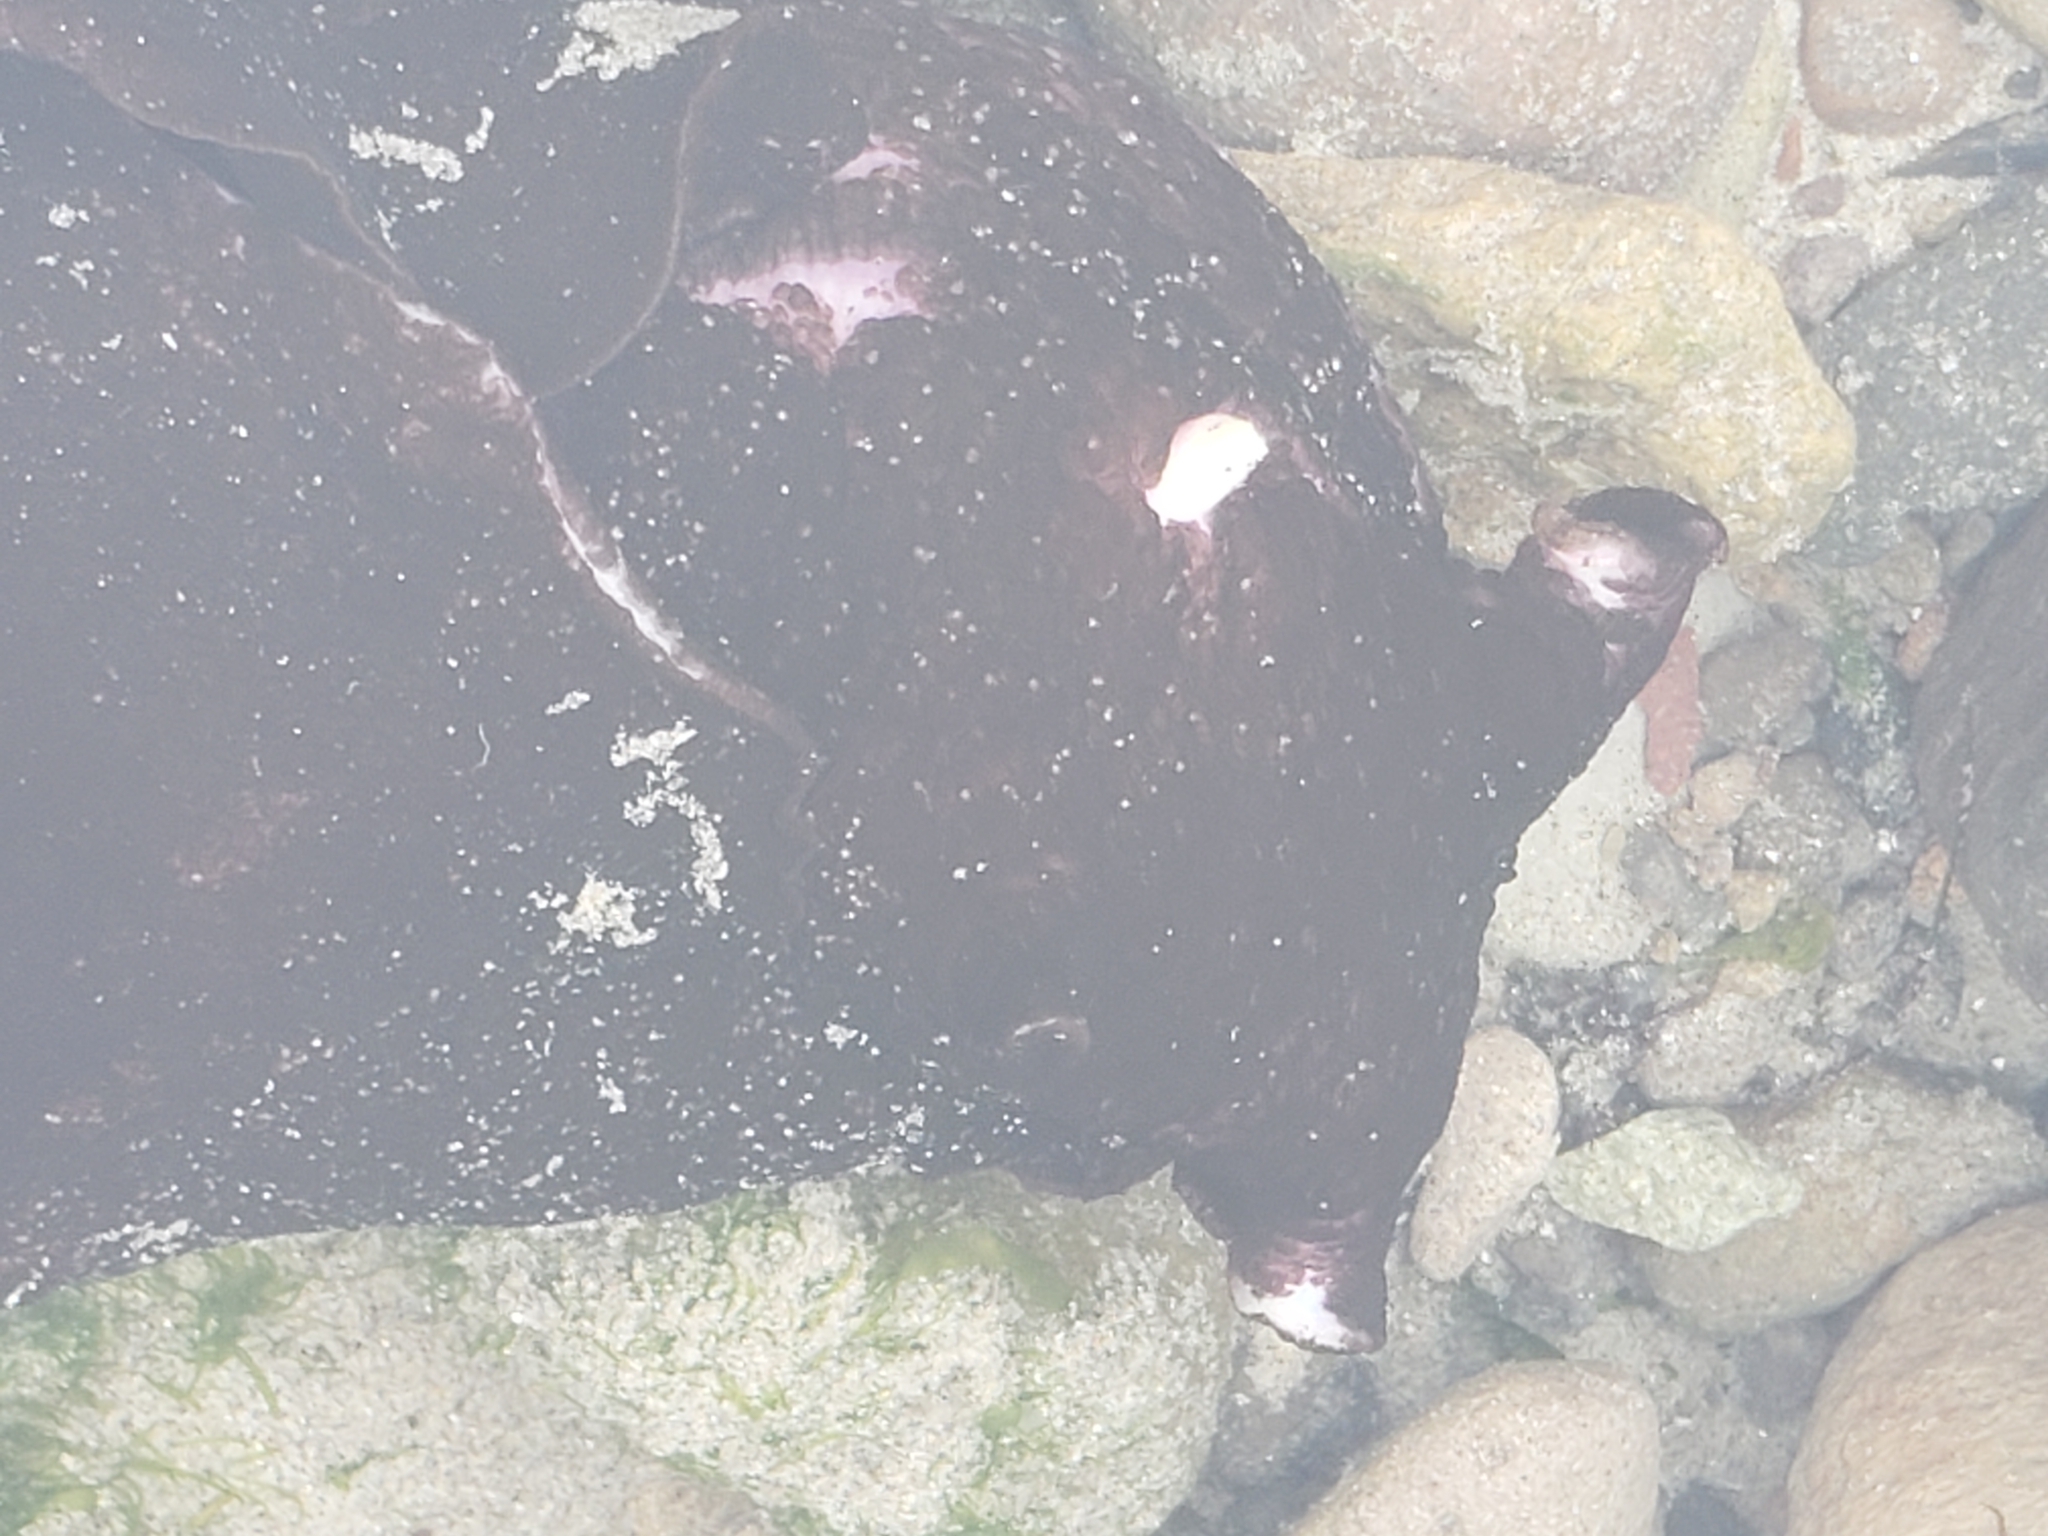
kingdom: Animalia
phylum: Mollusca
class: Gastropoda
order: Aplysiida
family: Aplysiidae
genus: Aplysia
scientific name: Aplysia vaccaria
